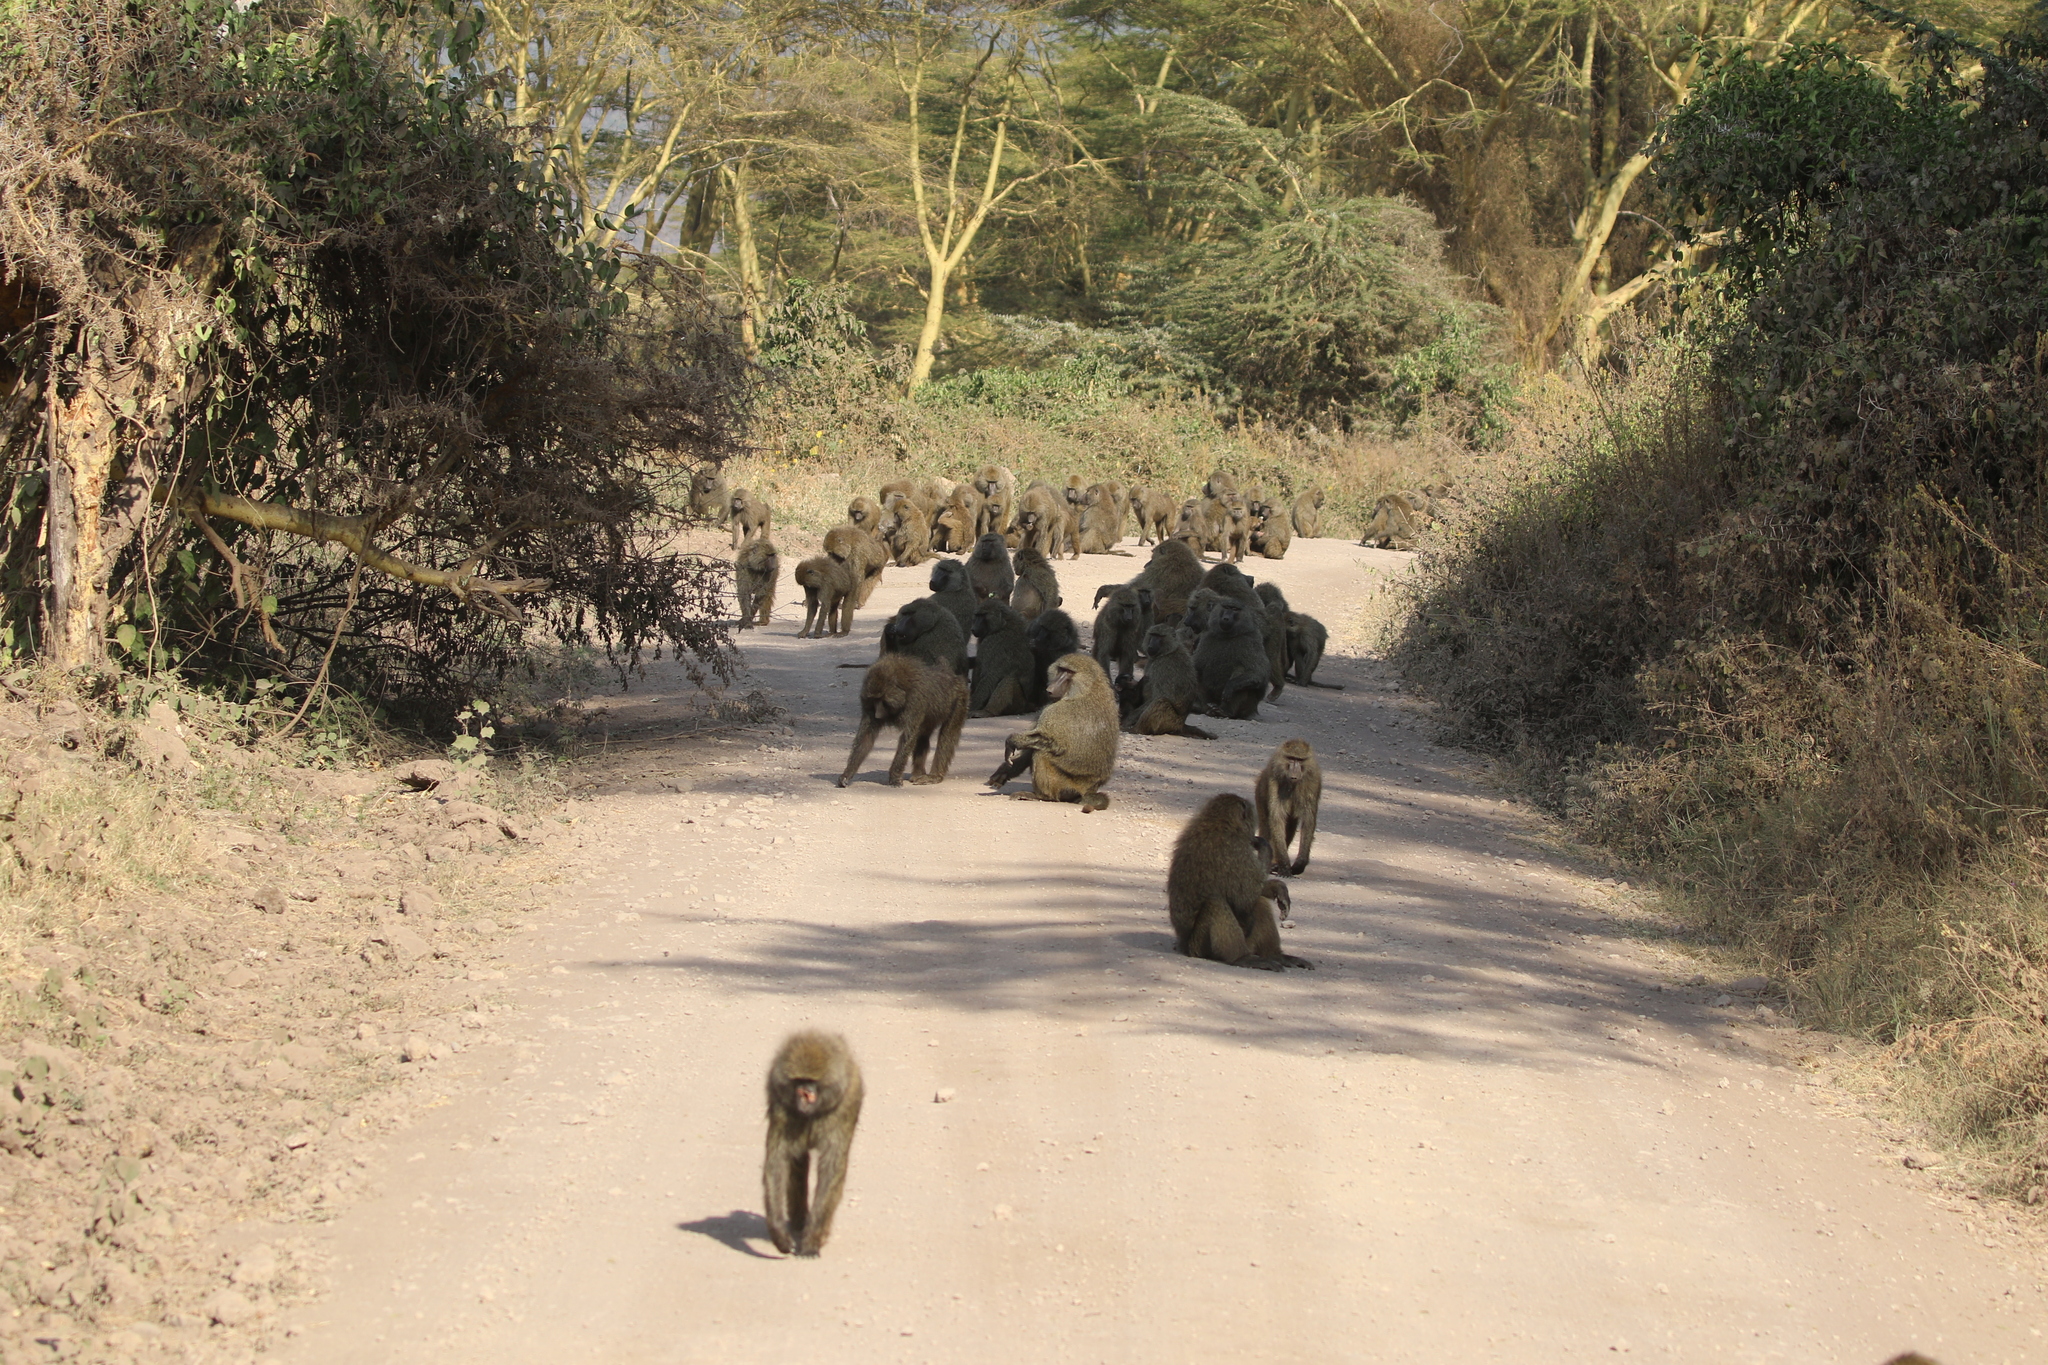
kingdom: Animalia
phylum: Chordata
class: Mammalia
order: Primates
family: Cercopithecidae
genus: Papio
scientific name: Papio anubis
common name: Olive baboon
